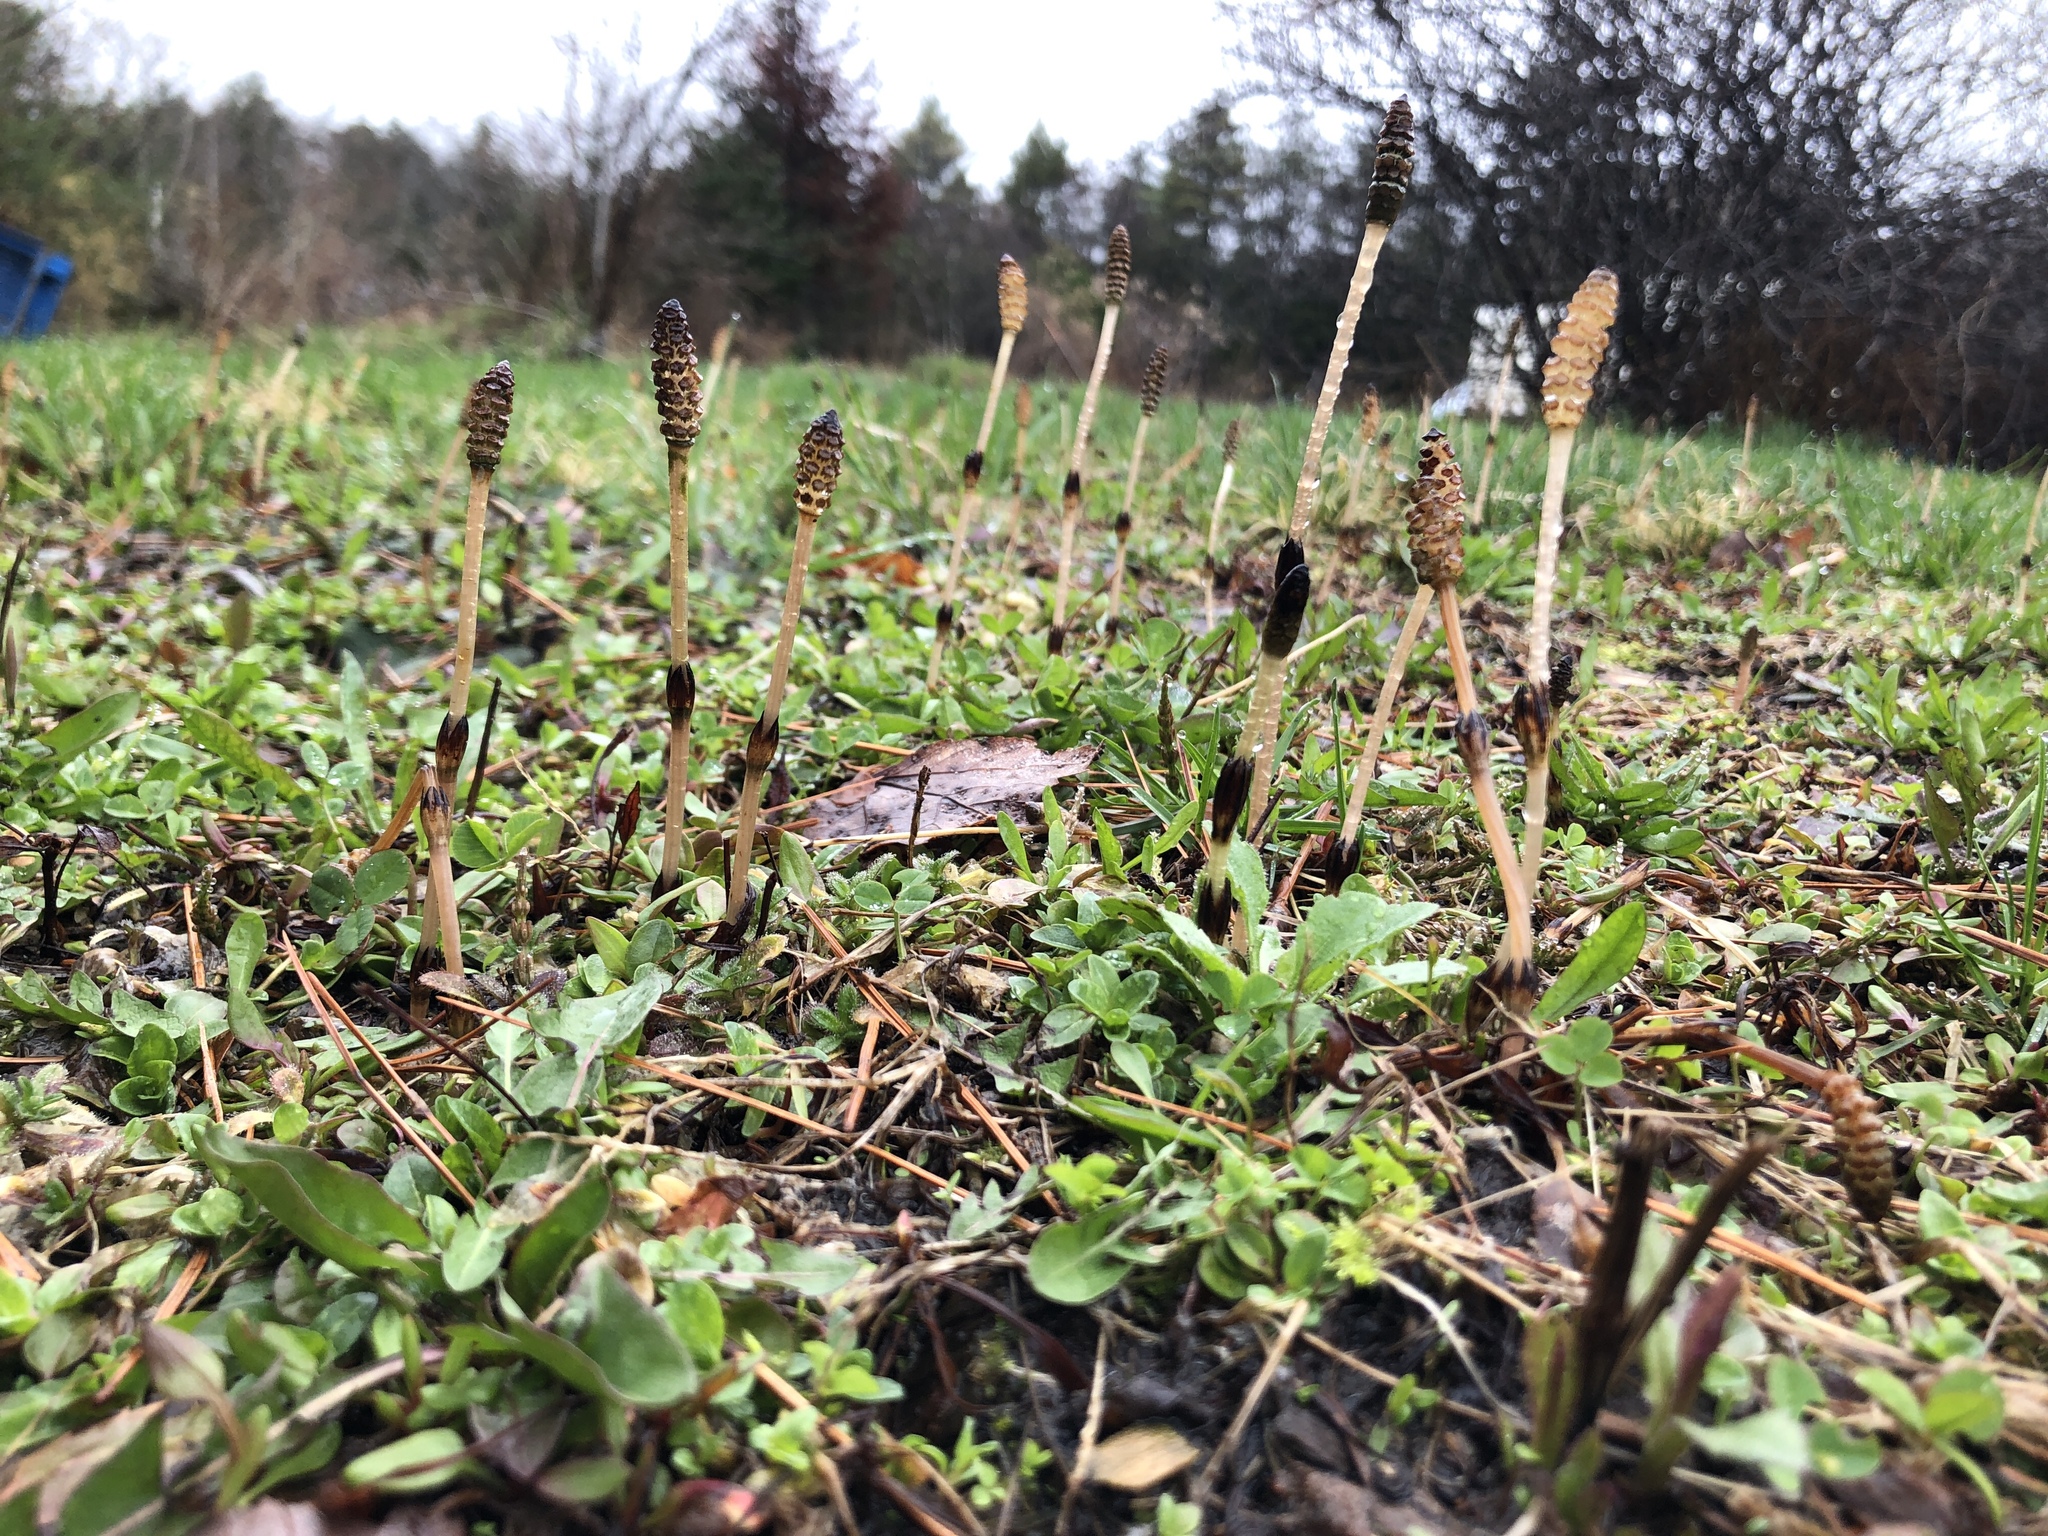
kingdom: Plantae
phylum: Tracheophyta
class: Polypodiopsida
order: Equisetales
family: Equisetaceae
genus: Equisetum
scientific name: Equisetum arvense
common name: Field horsetail
